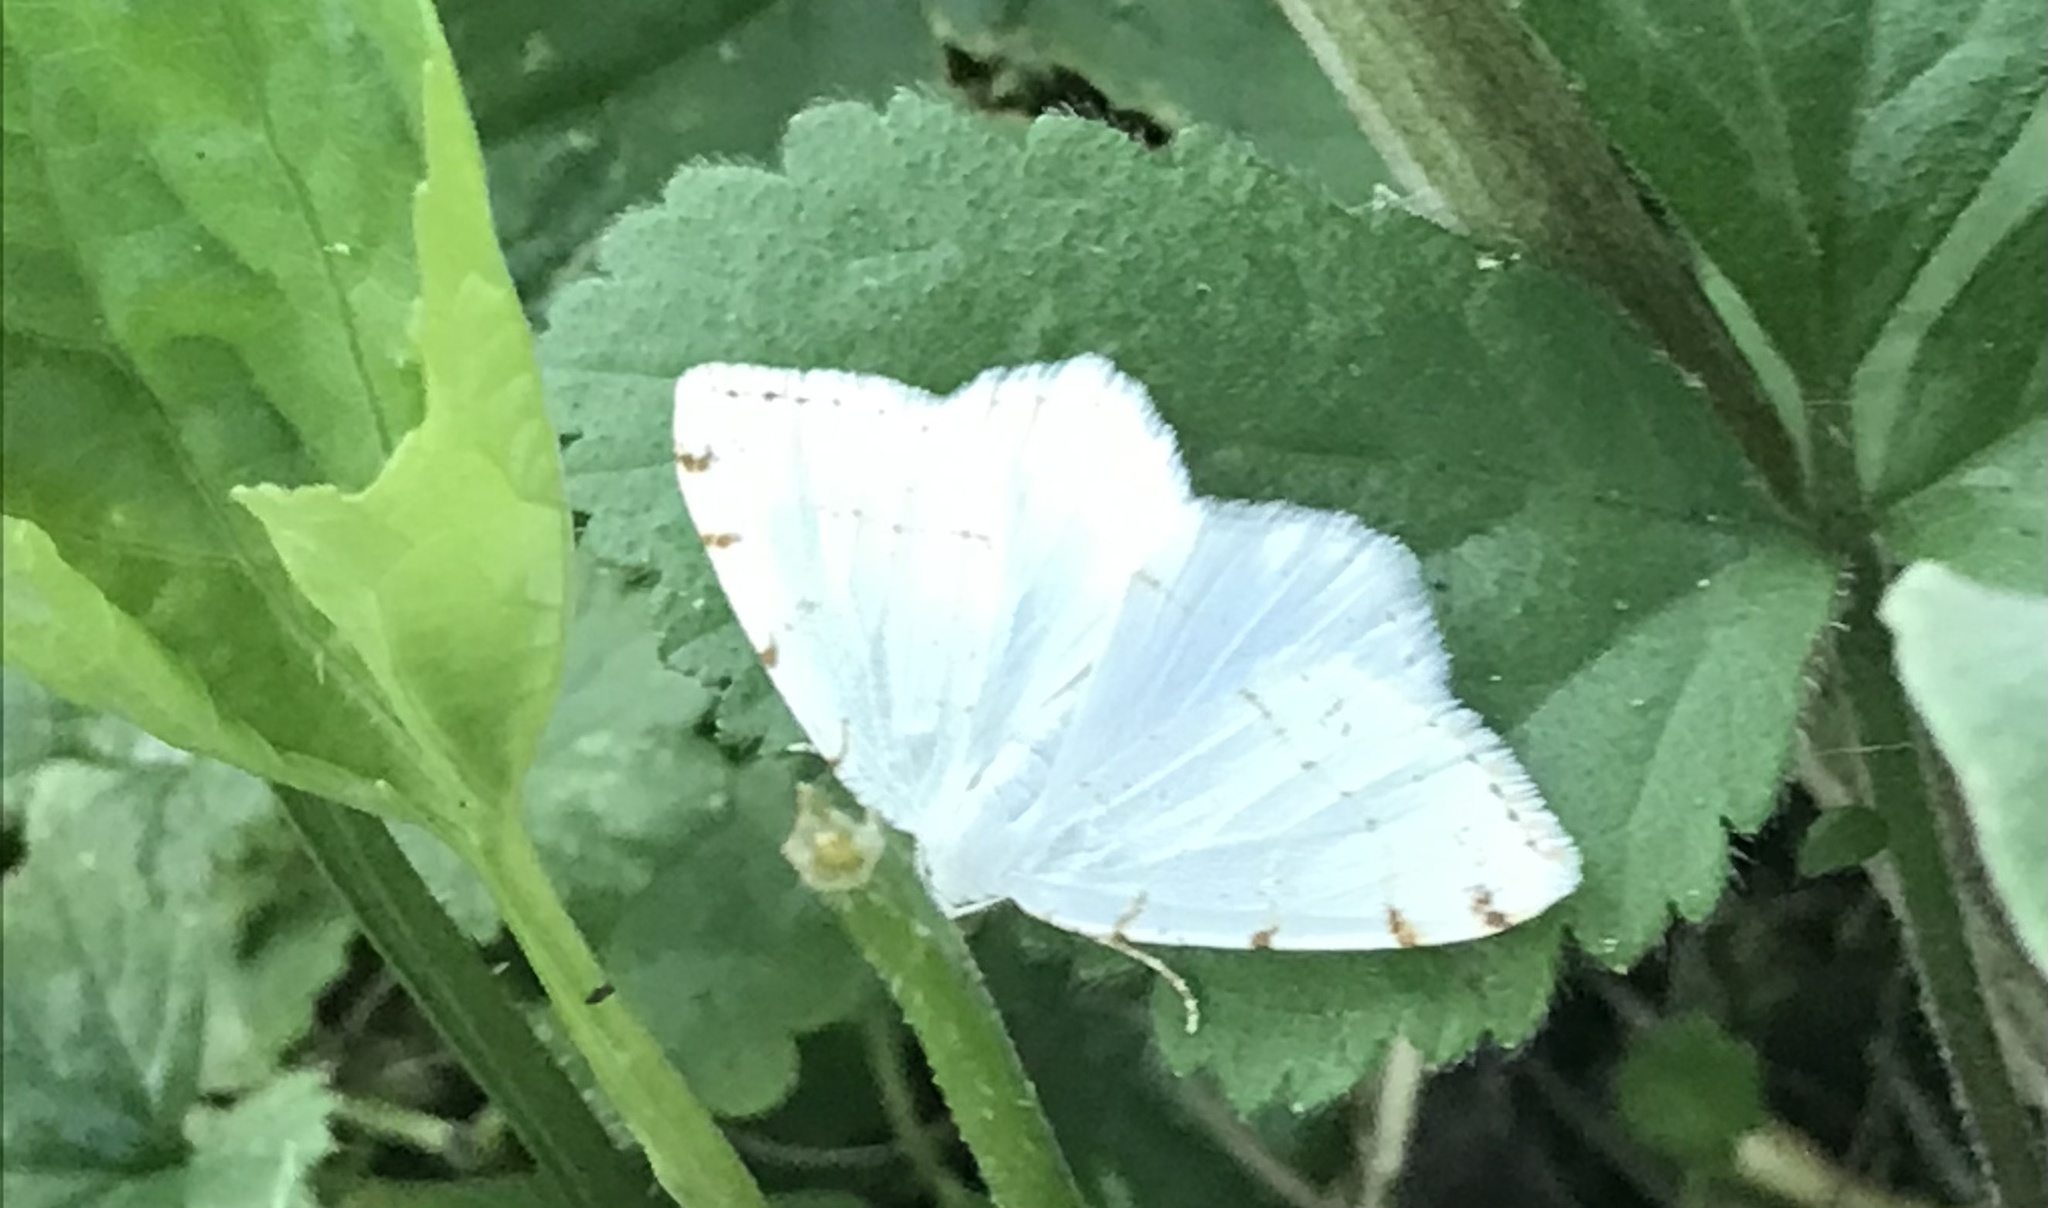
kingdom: Animalia
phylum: Arthropoda
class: Insecta
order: Lepidoptera
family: Geometridae
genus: Macaria
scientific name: Macaria pustularia
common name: Lesser maple spanworm moth
